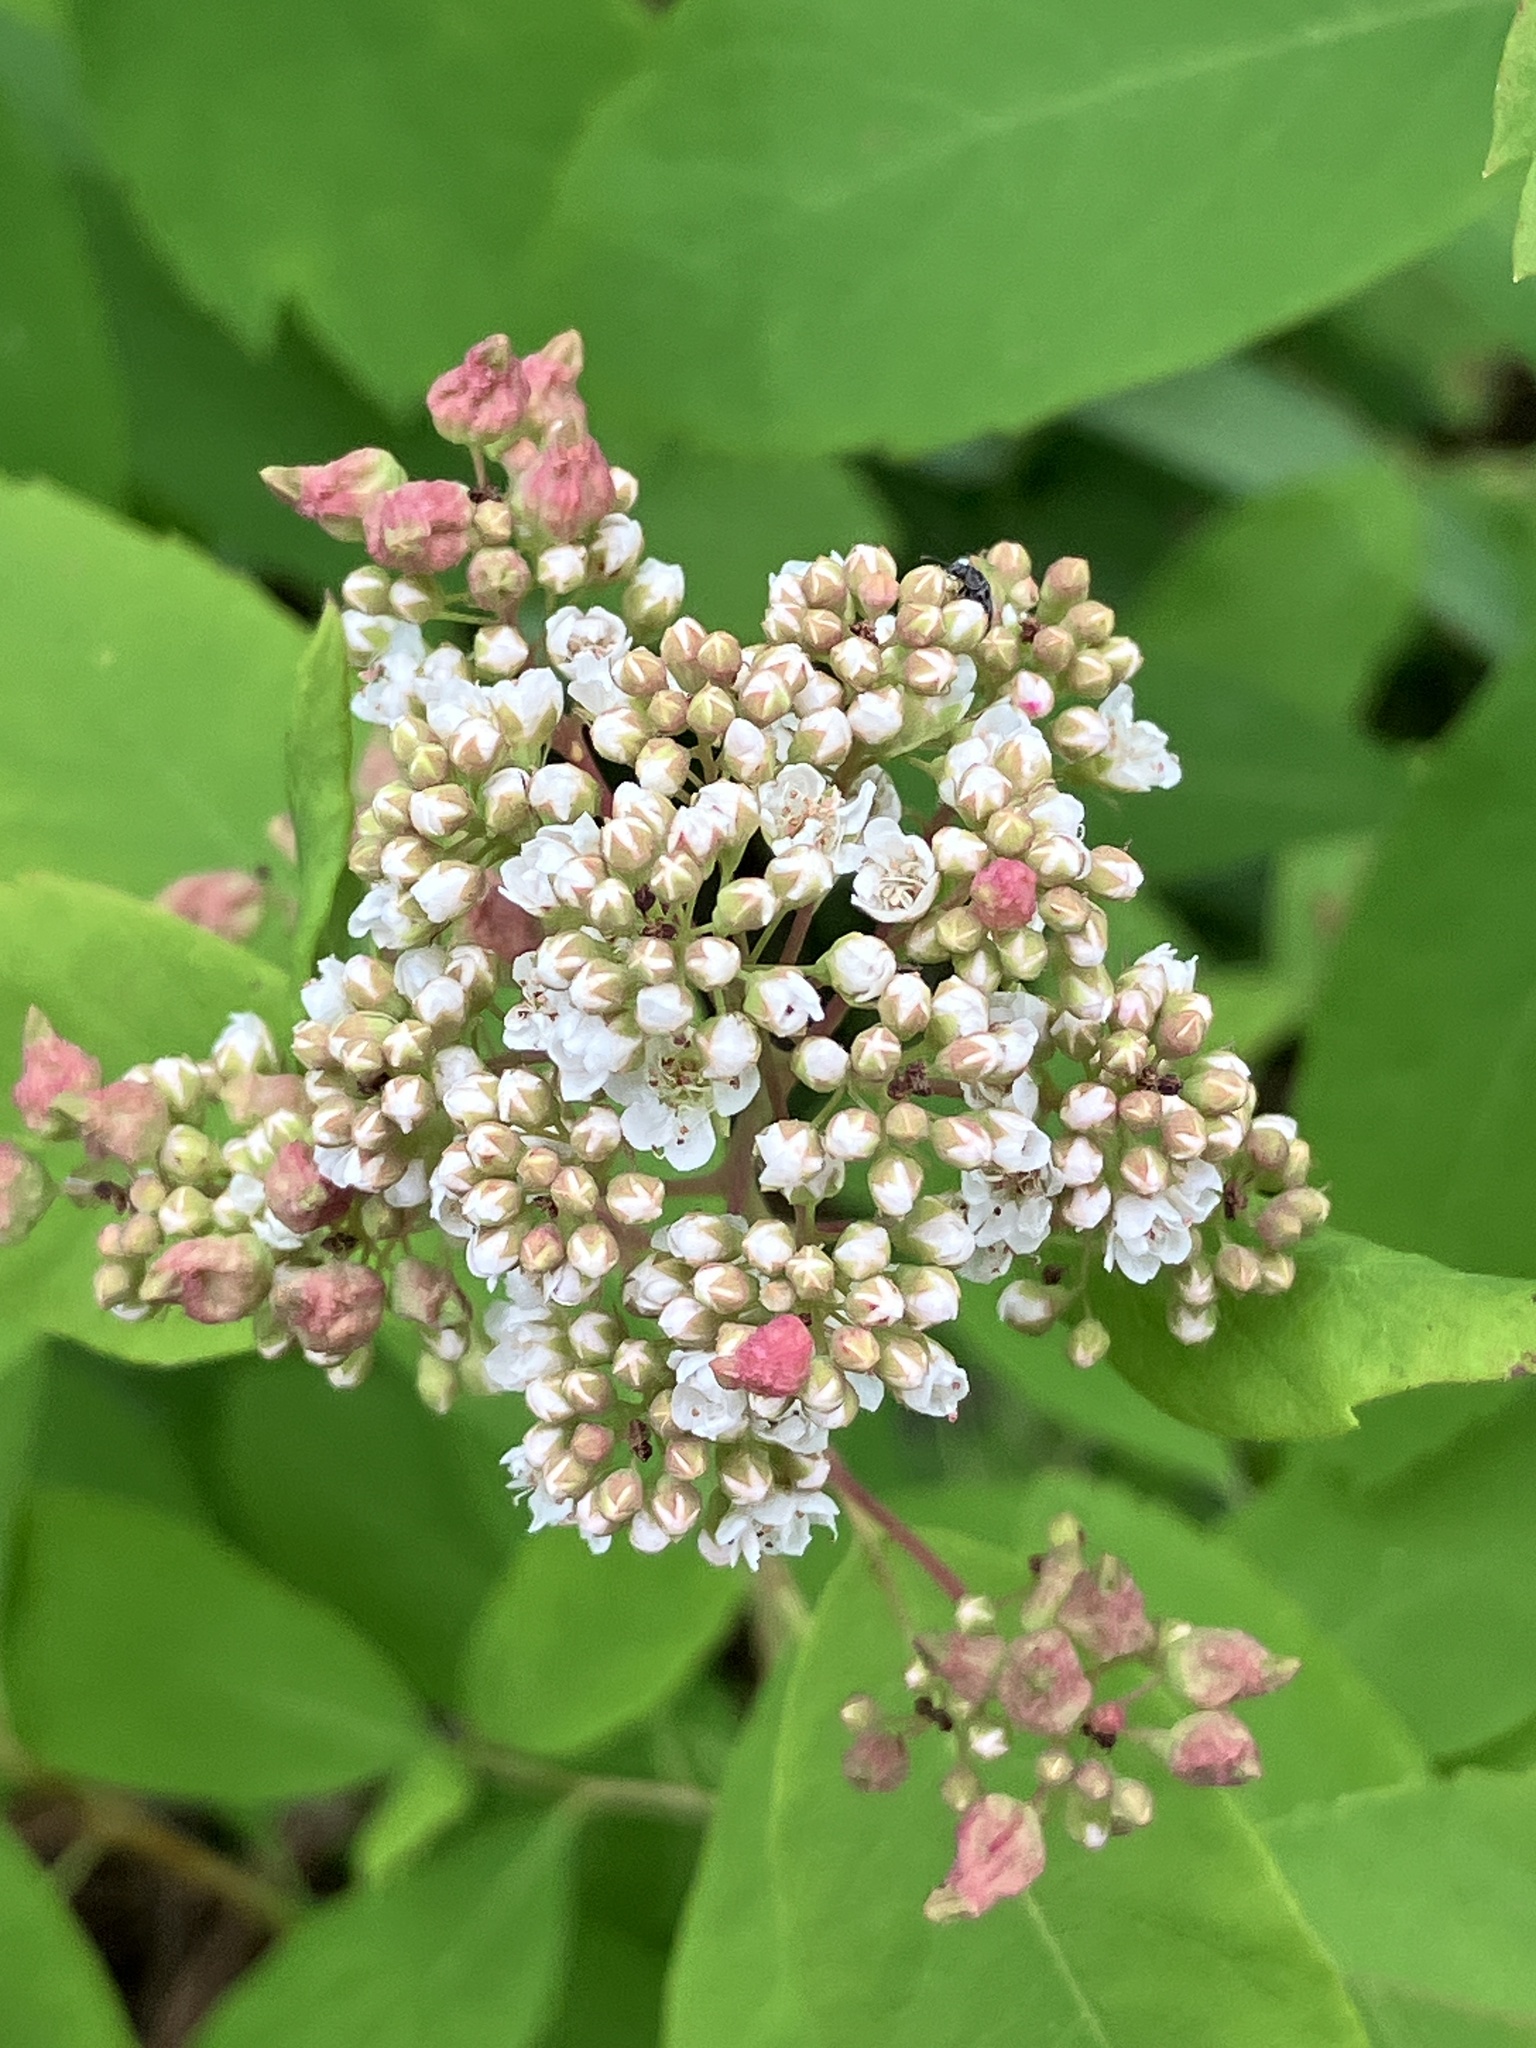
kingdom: Plantae
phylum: Tracheophyta
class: Magnoliopsida
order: Rosales
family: Rosaceae
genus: Spiraea
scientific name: Spiraea lucida
